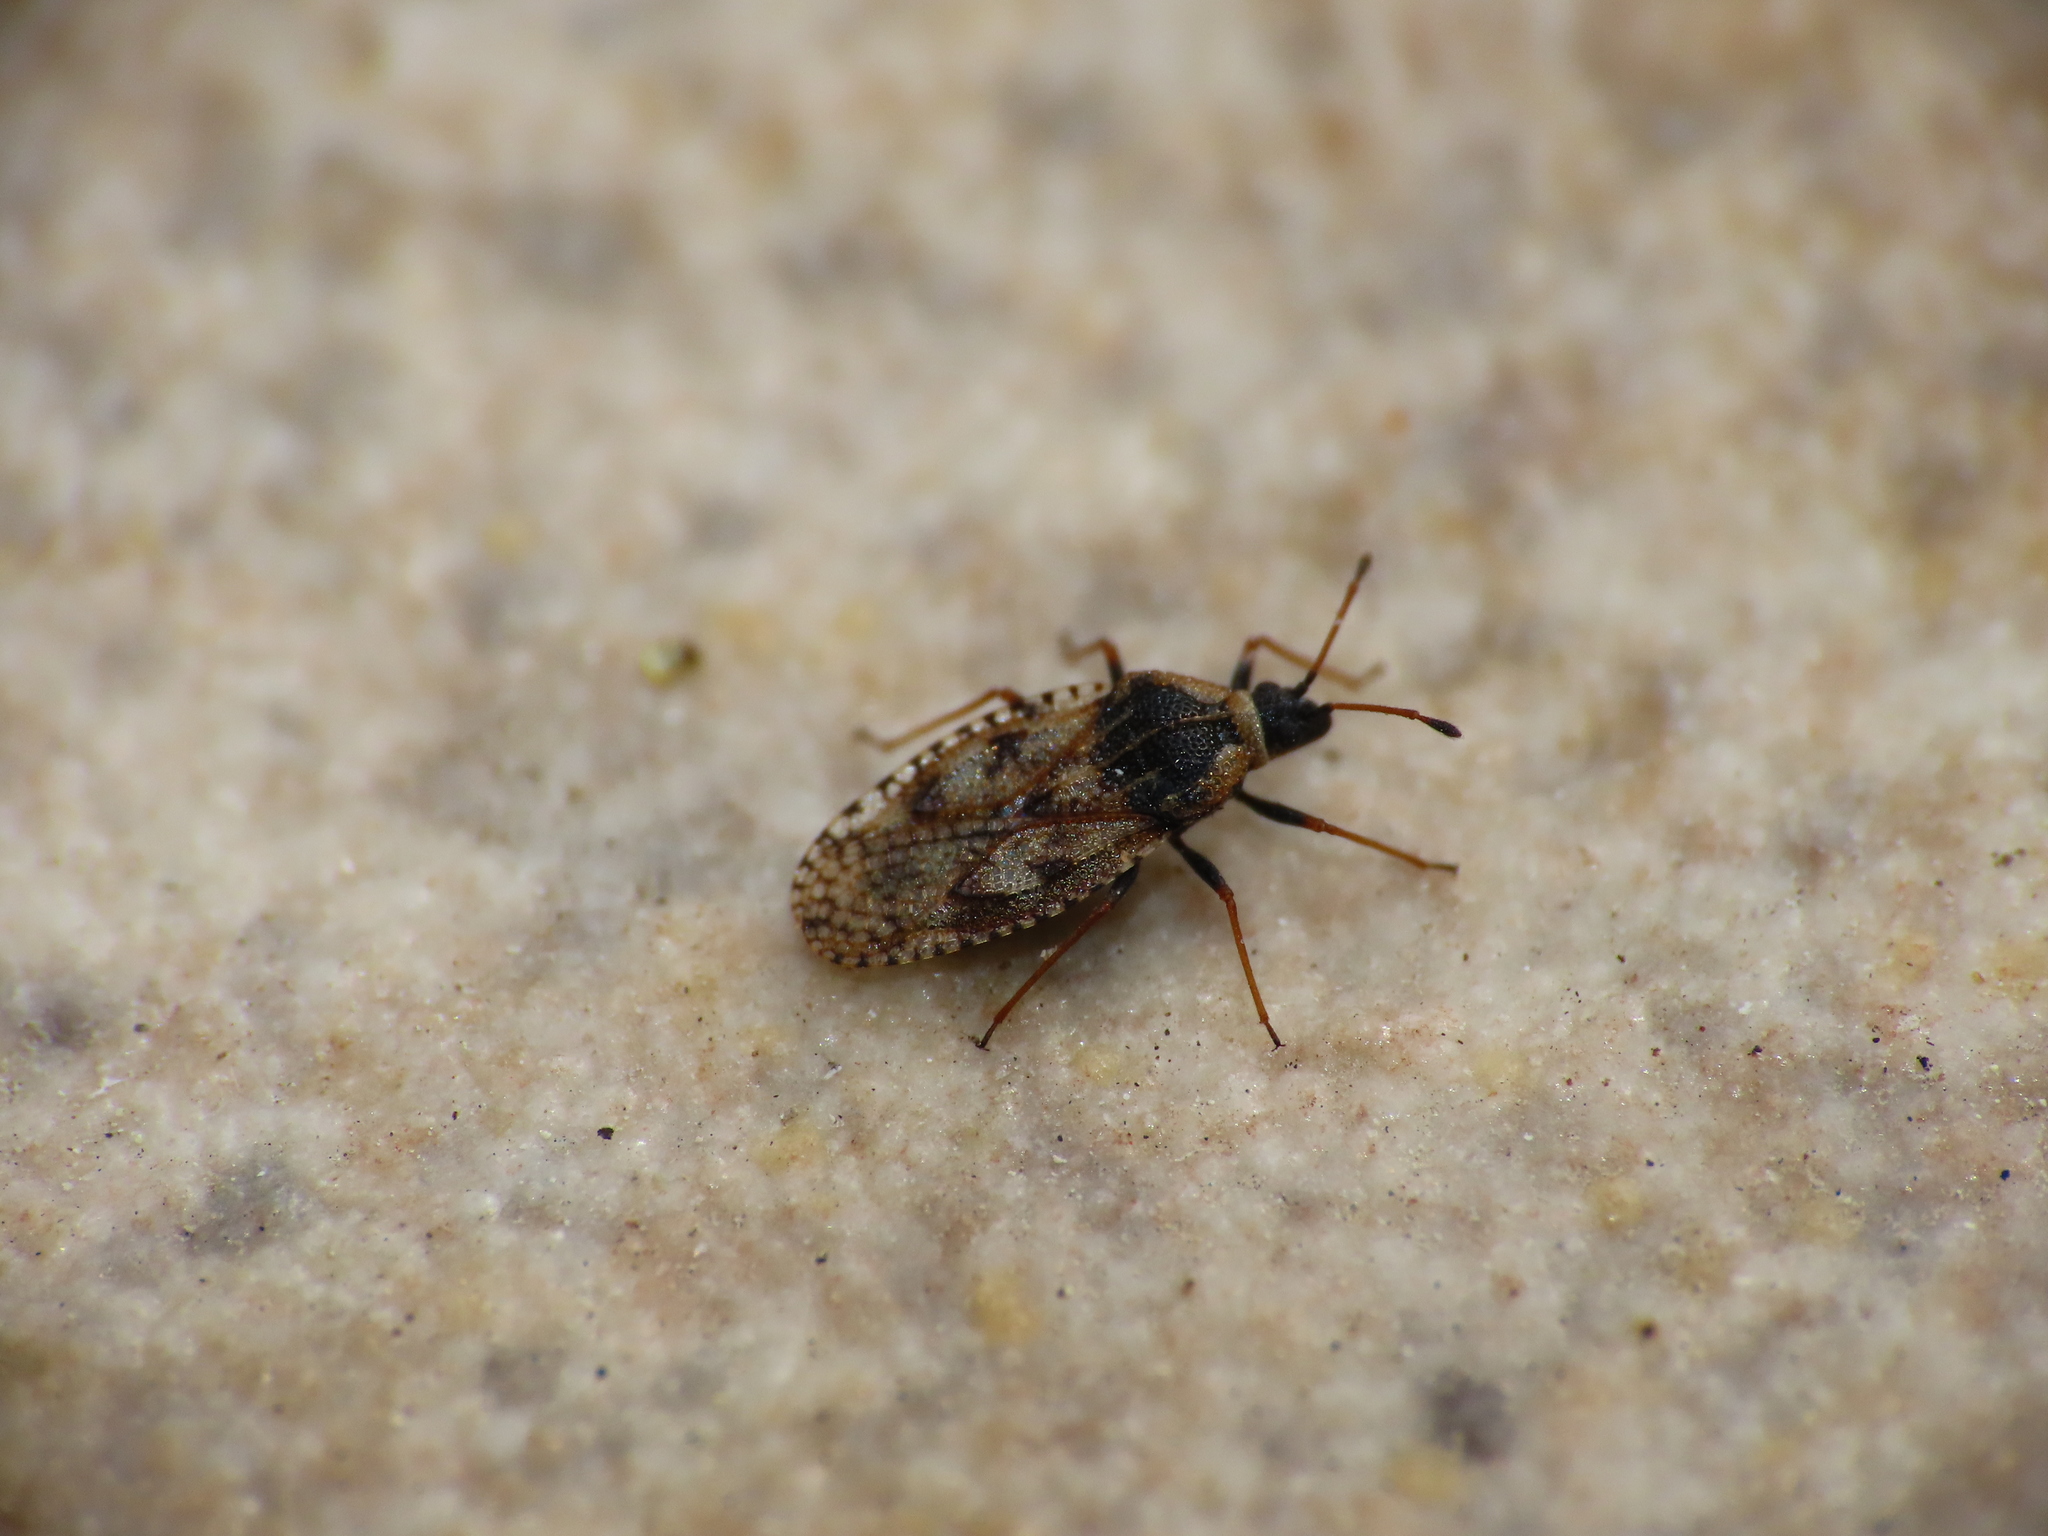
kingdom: Animalia
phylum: Arthropoda
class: Insecta
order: Hemiptera
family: Tingidae
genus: Dictyla
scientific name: Dictyla echii
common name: Lace bug
